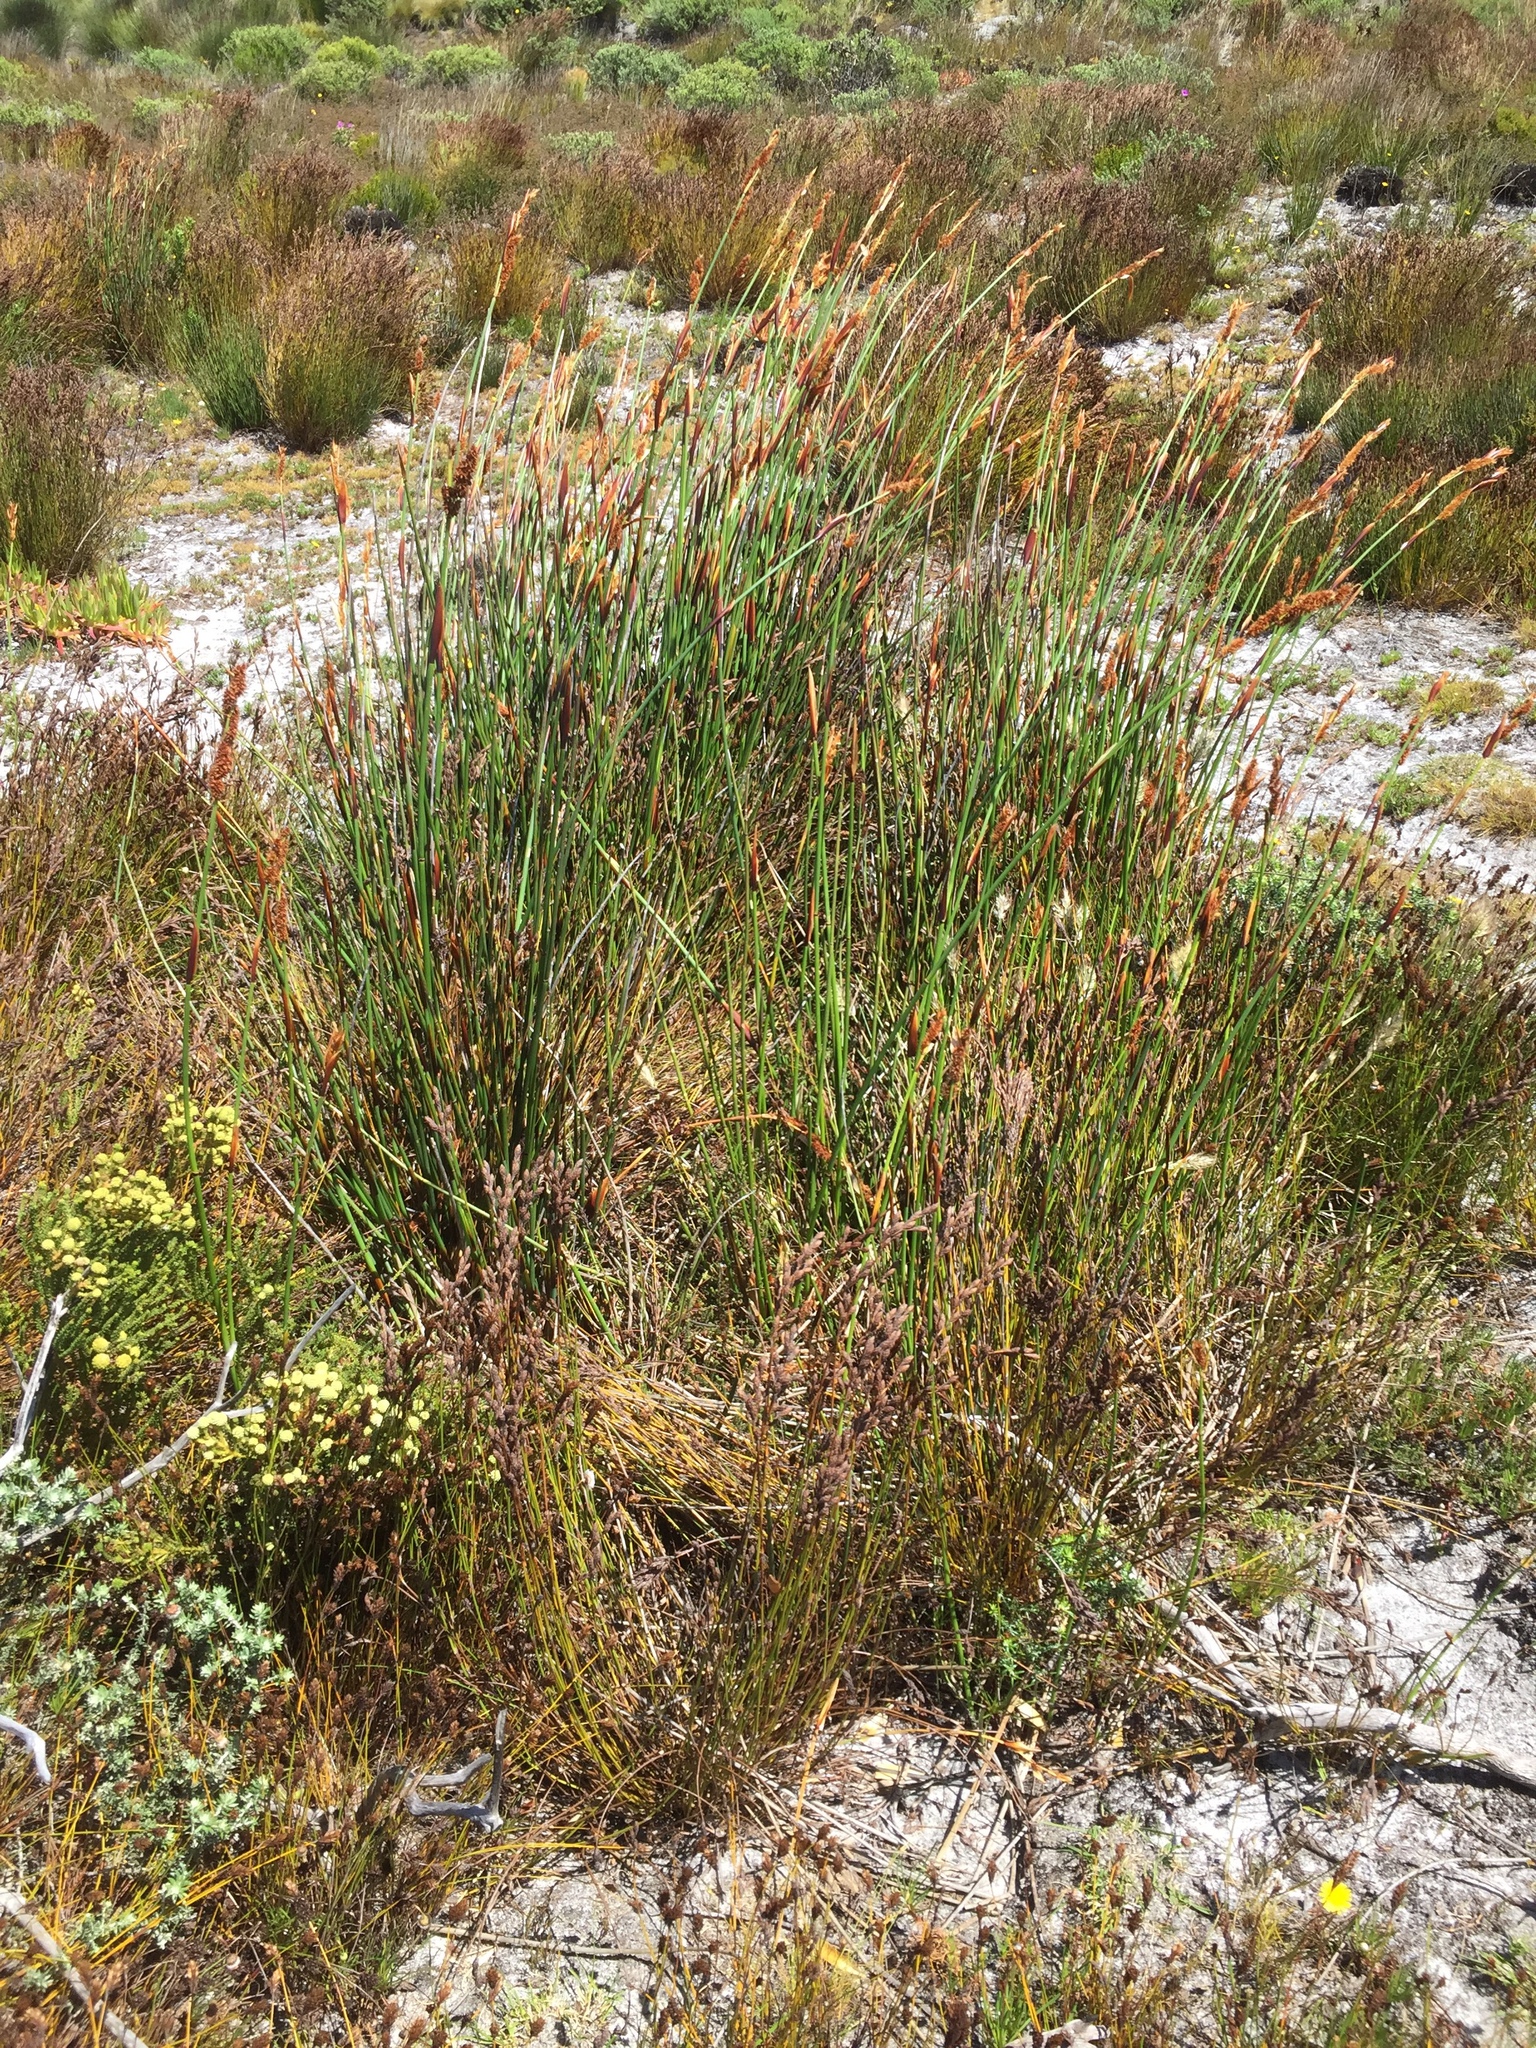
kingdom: Plantae
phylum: Tracheophyta
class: Liliopsida
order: Poales
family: Restionaceae
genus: Elegia
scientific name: Elegia cuspidata
